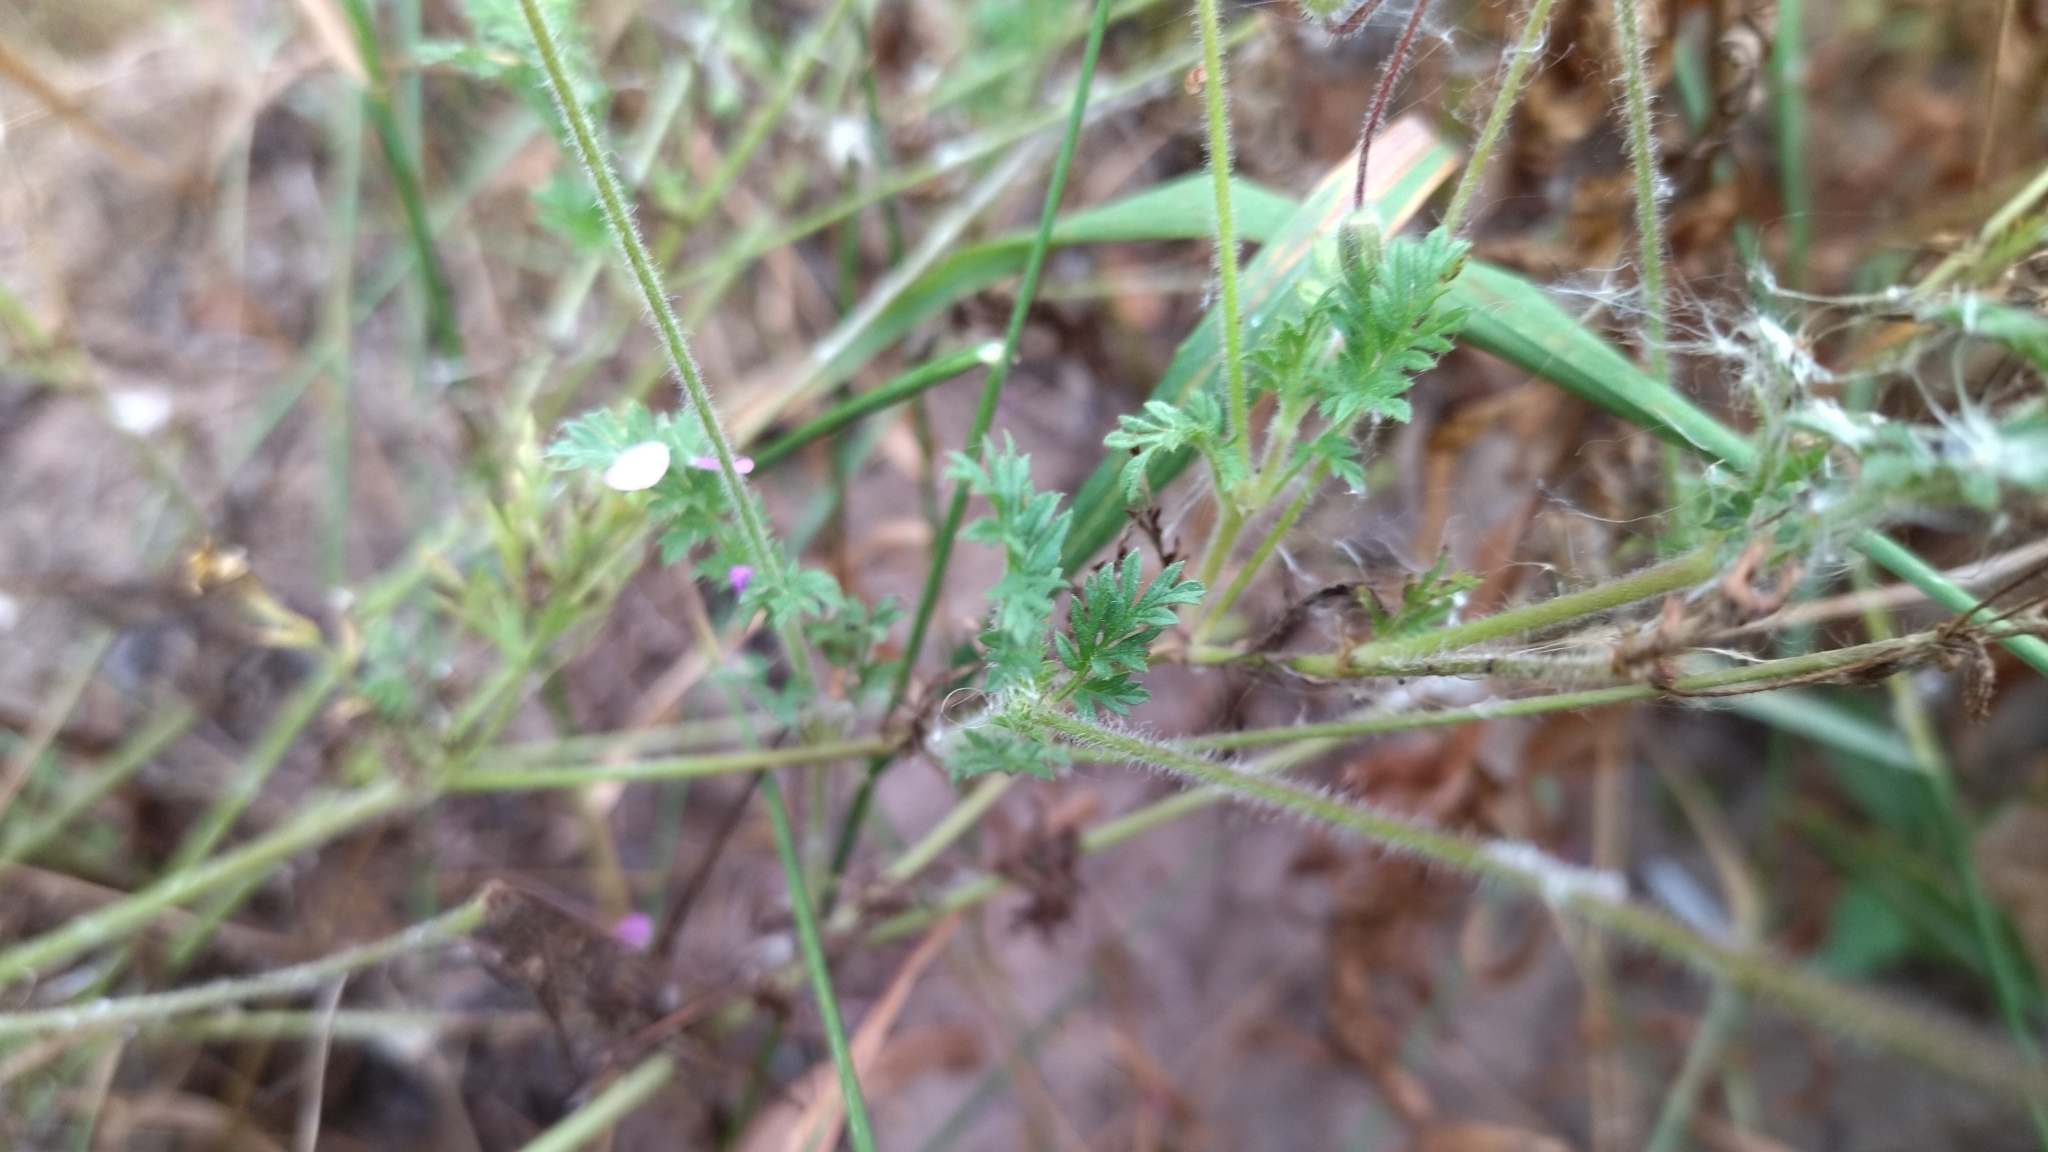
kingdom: Plantae
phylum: Tracheophyta
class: Magnoliopsida
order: Geraniales
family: Geraniaceae
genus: Erodium
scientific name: Erodium cicutarium
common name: Common stork's-bill
